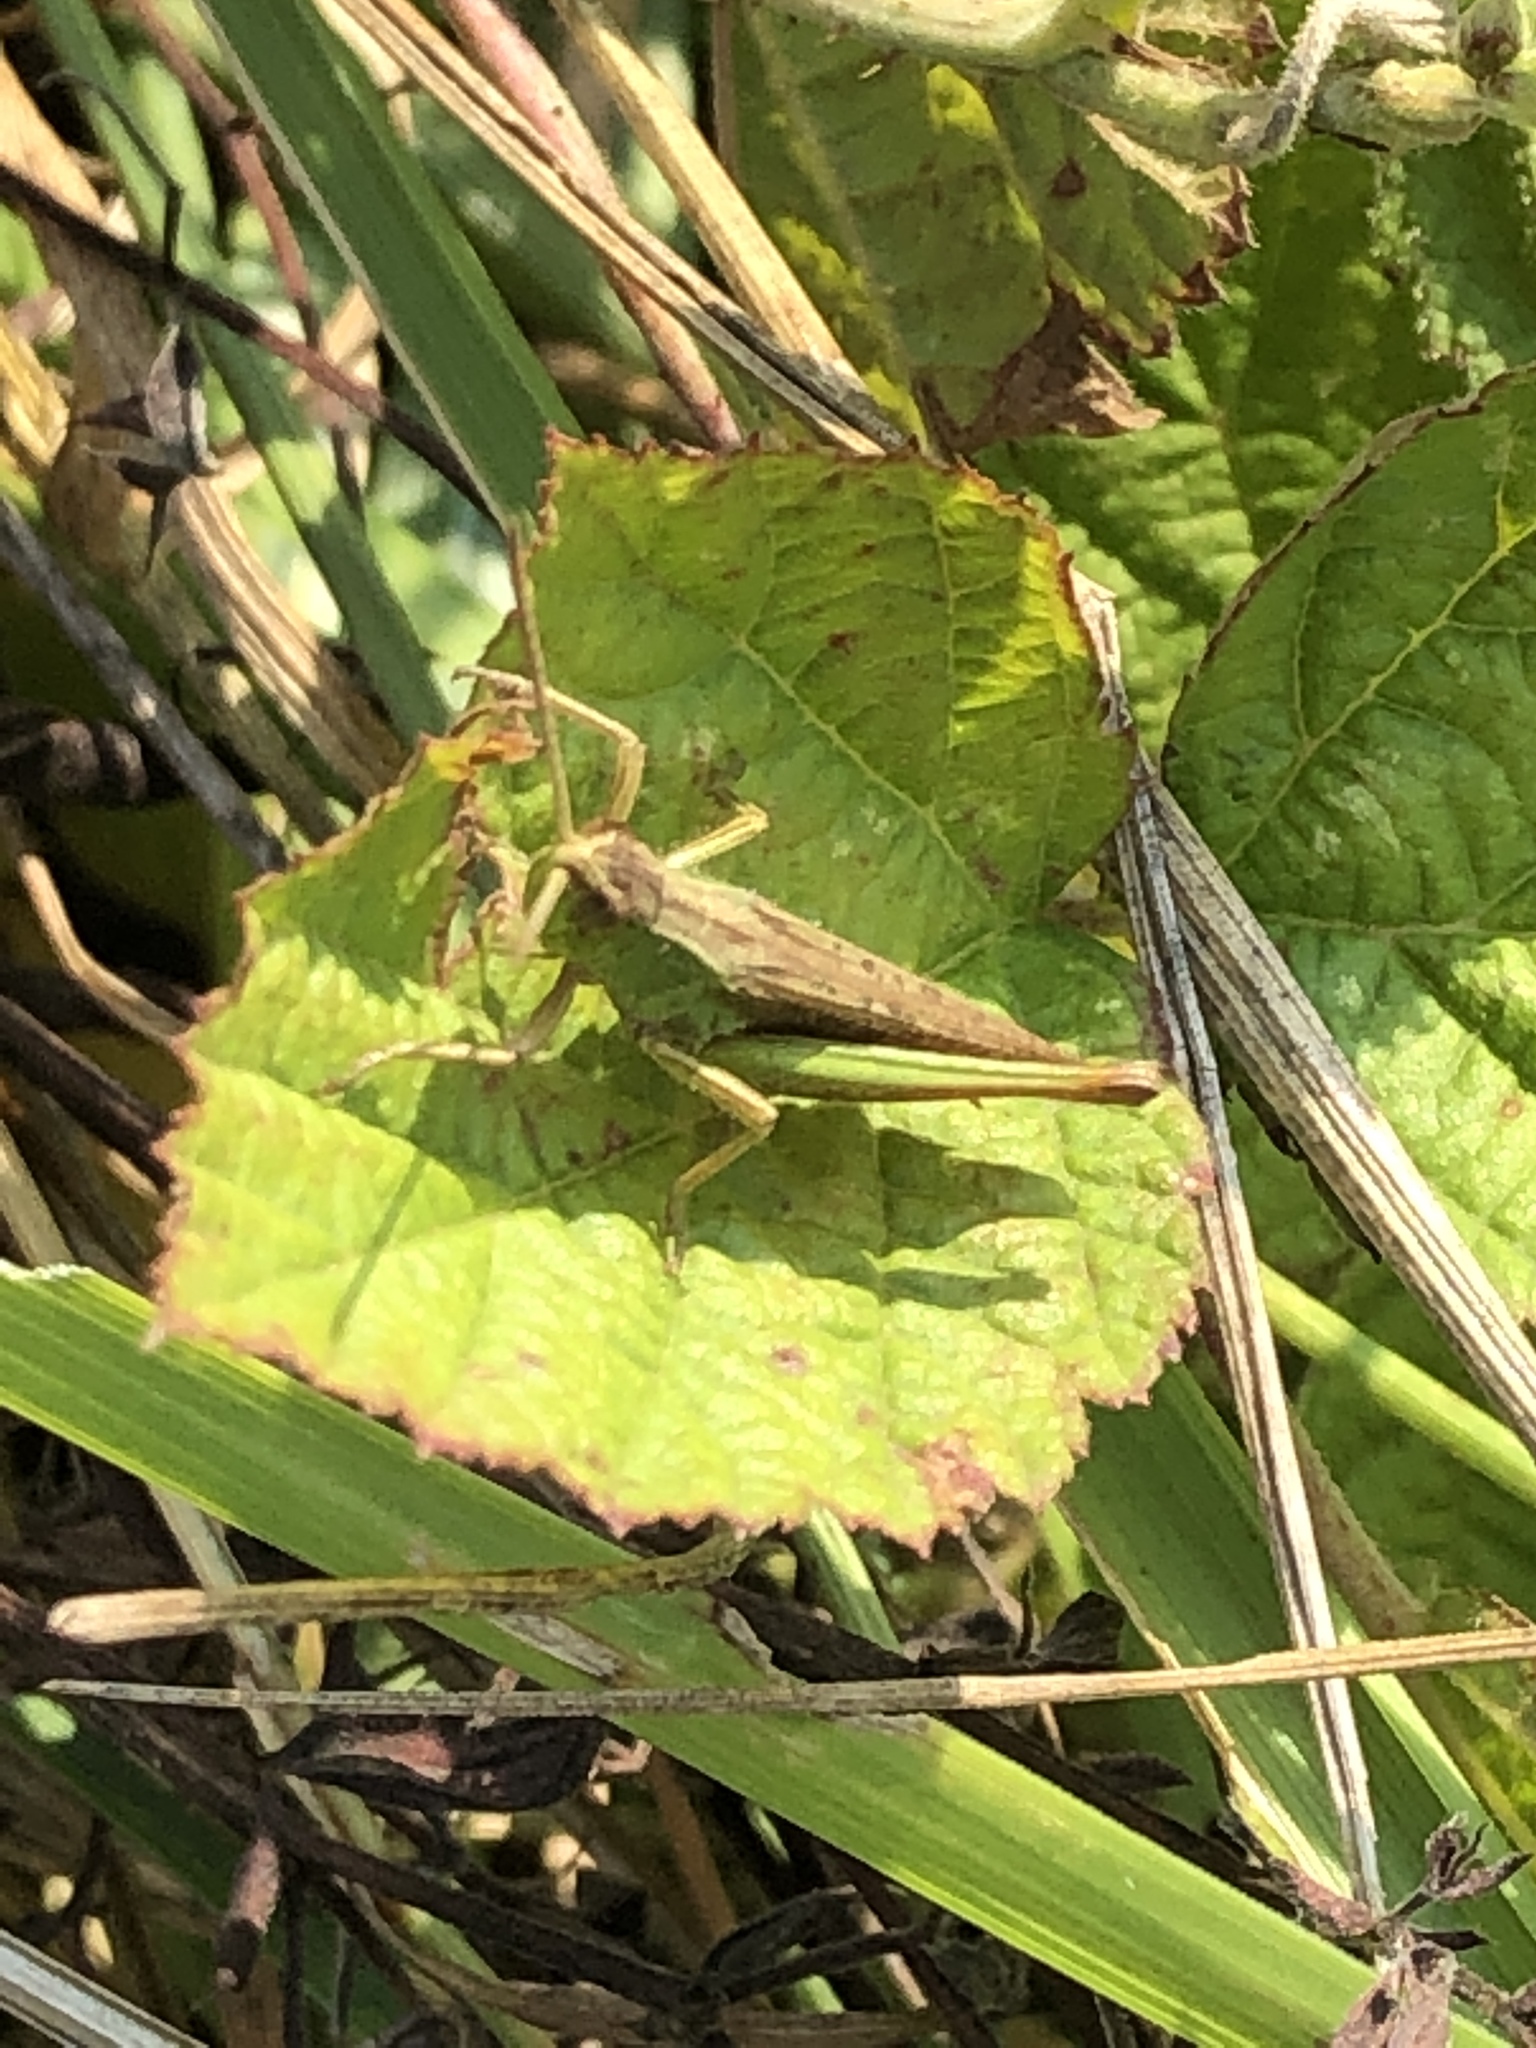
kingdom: Animalia
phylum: Arthropoda
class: Insecta
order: Orthoptera
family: Acrididae
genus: Pseudochorthippus
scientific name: Pseudochorthippus parallelus
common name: Meadow grasshopper
